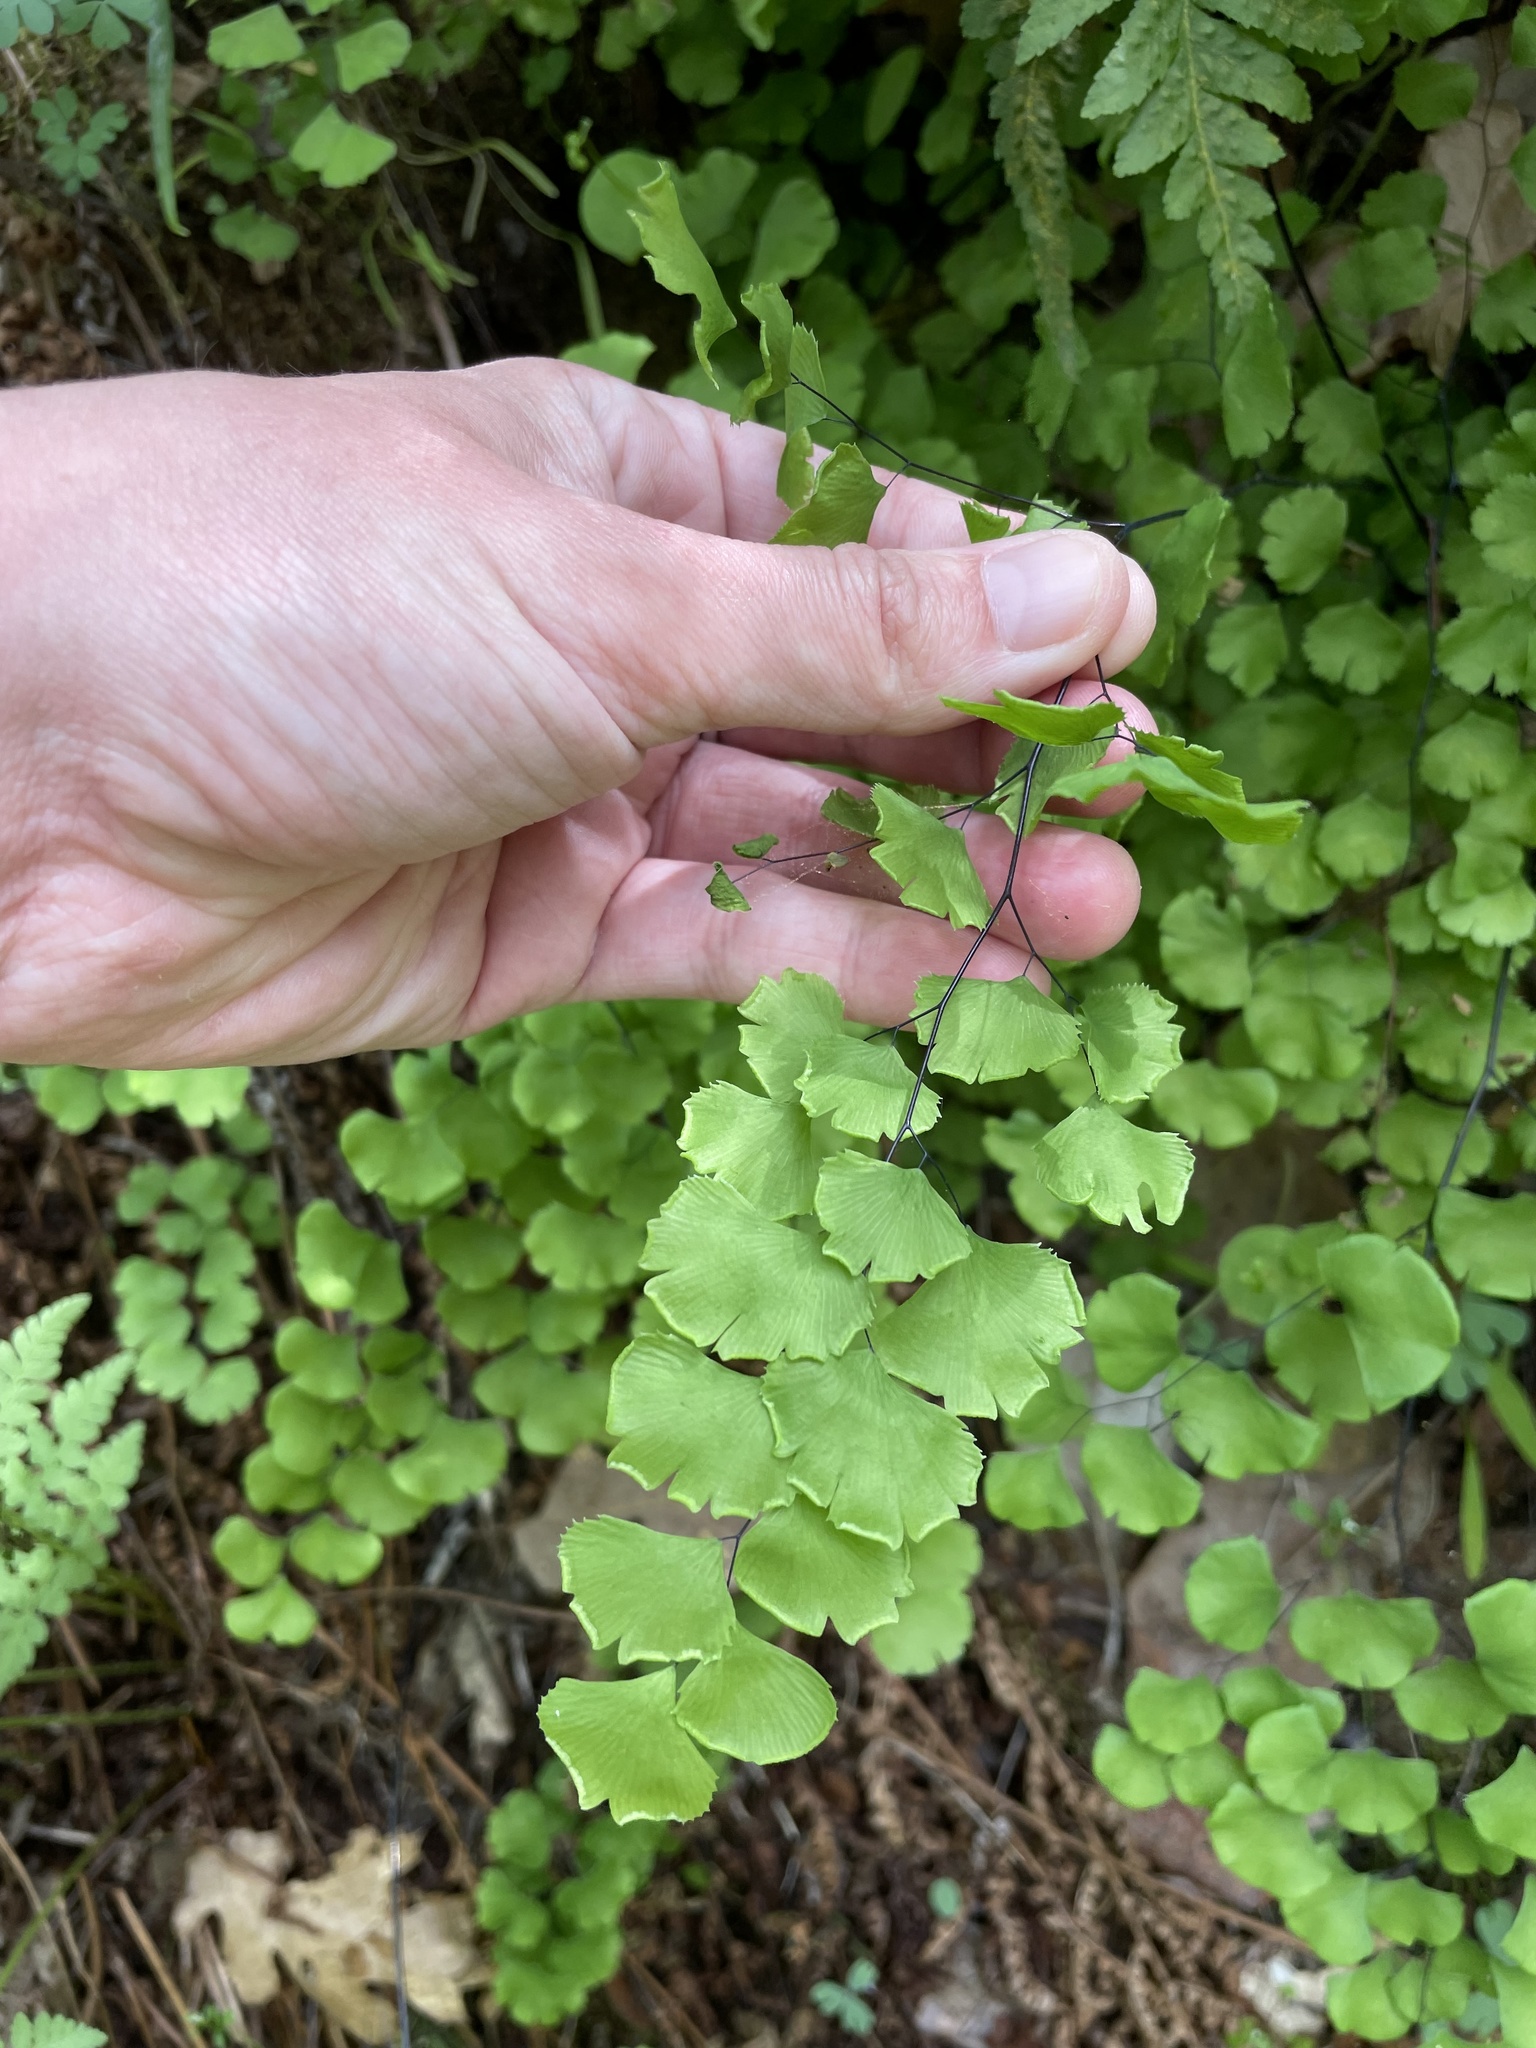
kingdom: Plantae
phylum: Tracheophyta
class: Polypodiopsida
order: Polypodiales
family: Pteridaceae
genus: Adiantum
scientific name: Adiantum jordanii
